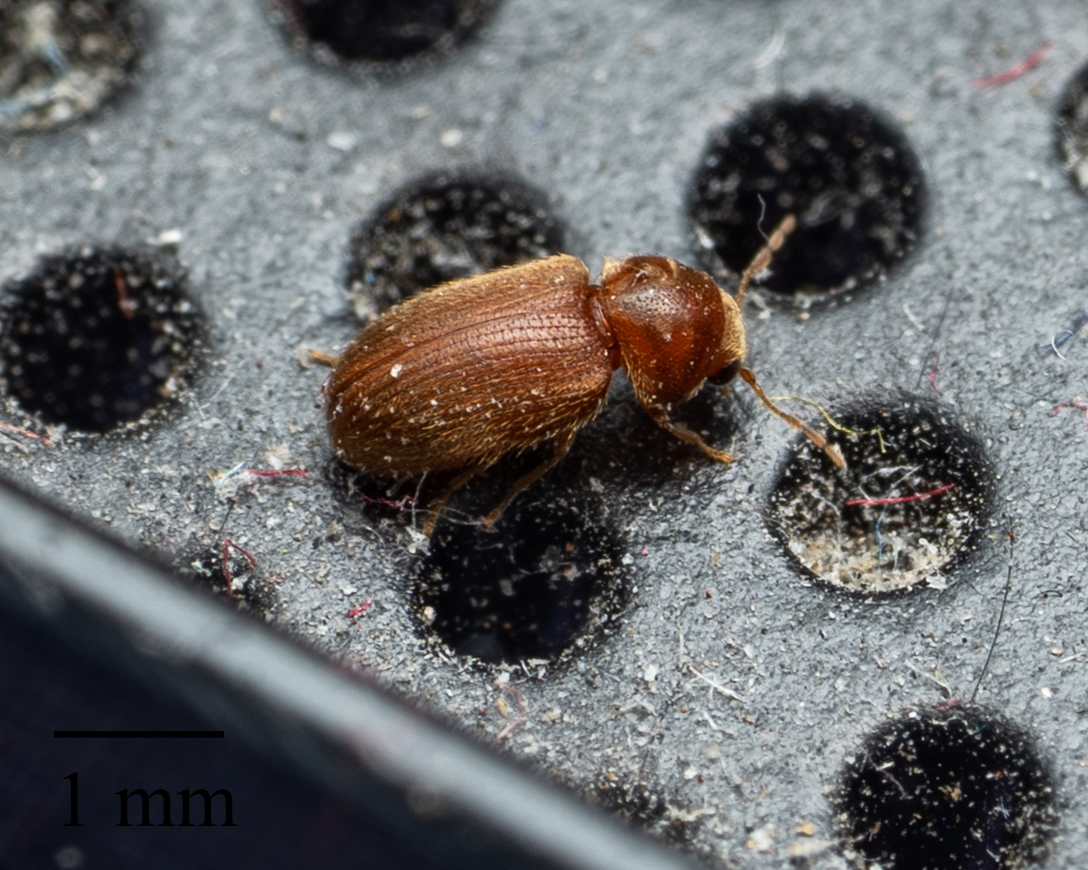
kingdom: Animalia
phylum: Arthropoda
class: Insecta
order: Coleoptera
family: Anobiidae
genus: Stegobium
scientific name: Stegobium paniceum
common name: Drugstore beetle
